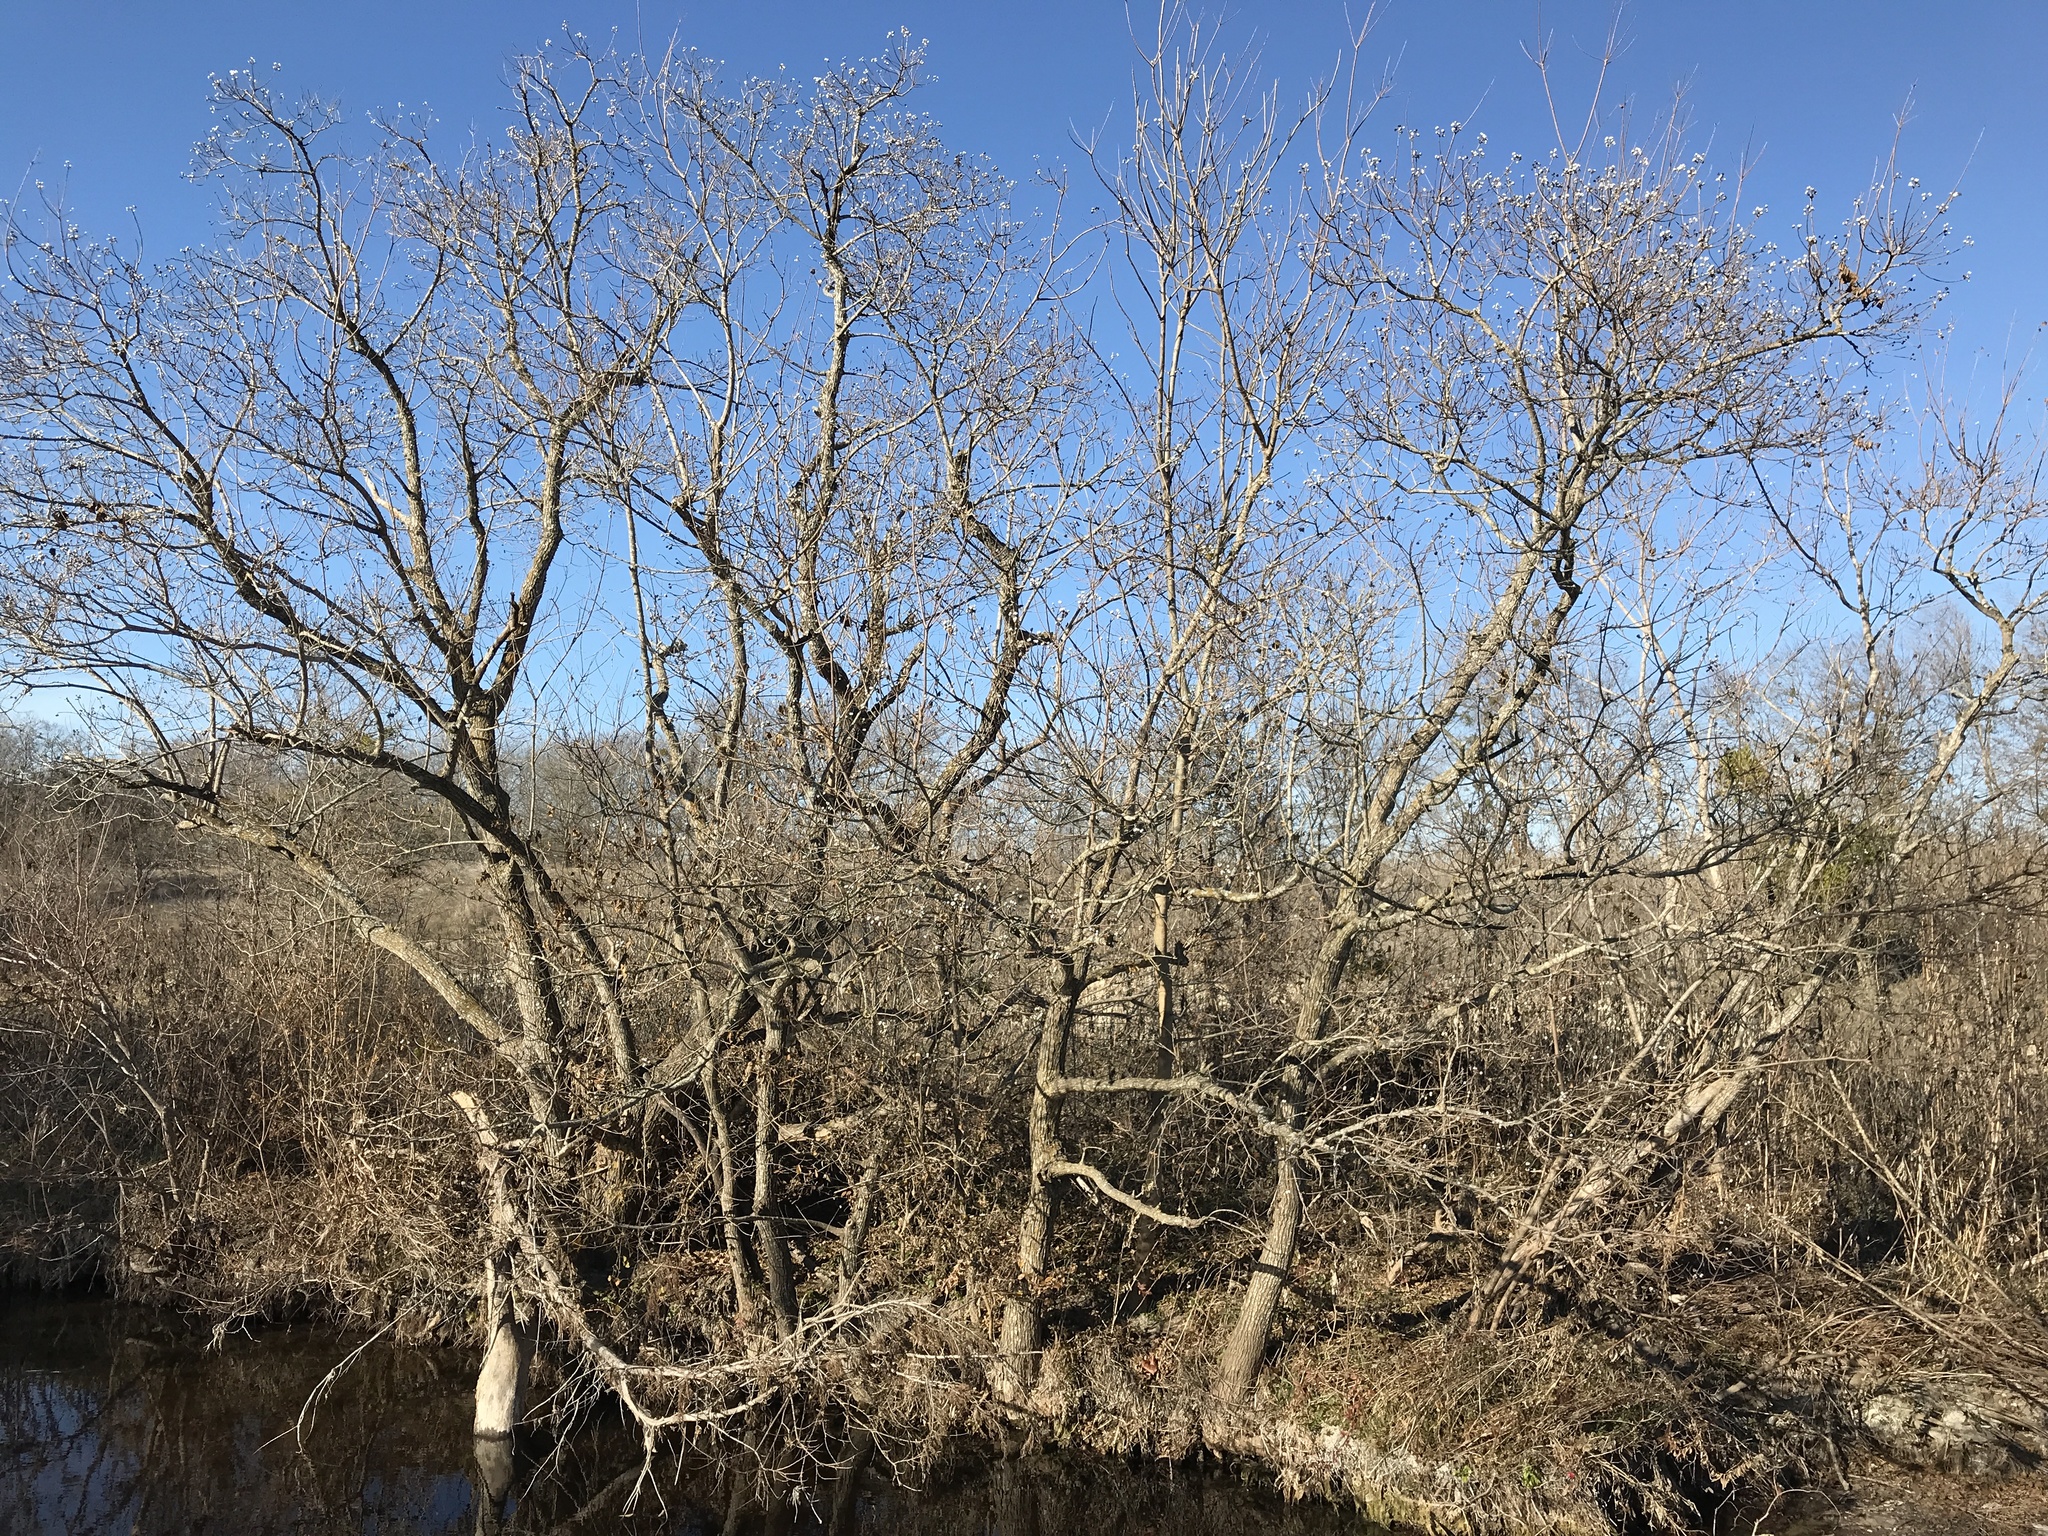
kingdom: Plantae
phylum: Tracheophyta
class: Magnoliopsida
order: Malpighiales
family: Euphorbiaceae
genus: Triadica
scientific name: Triadica sebifera
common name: Chinese tallow
